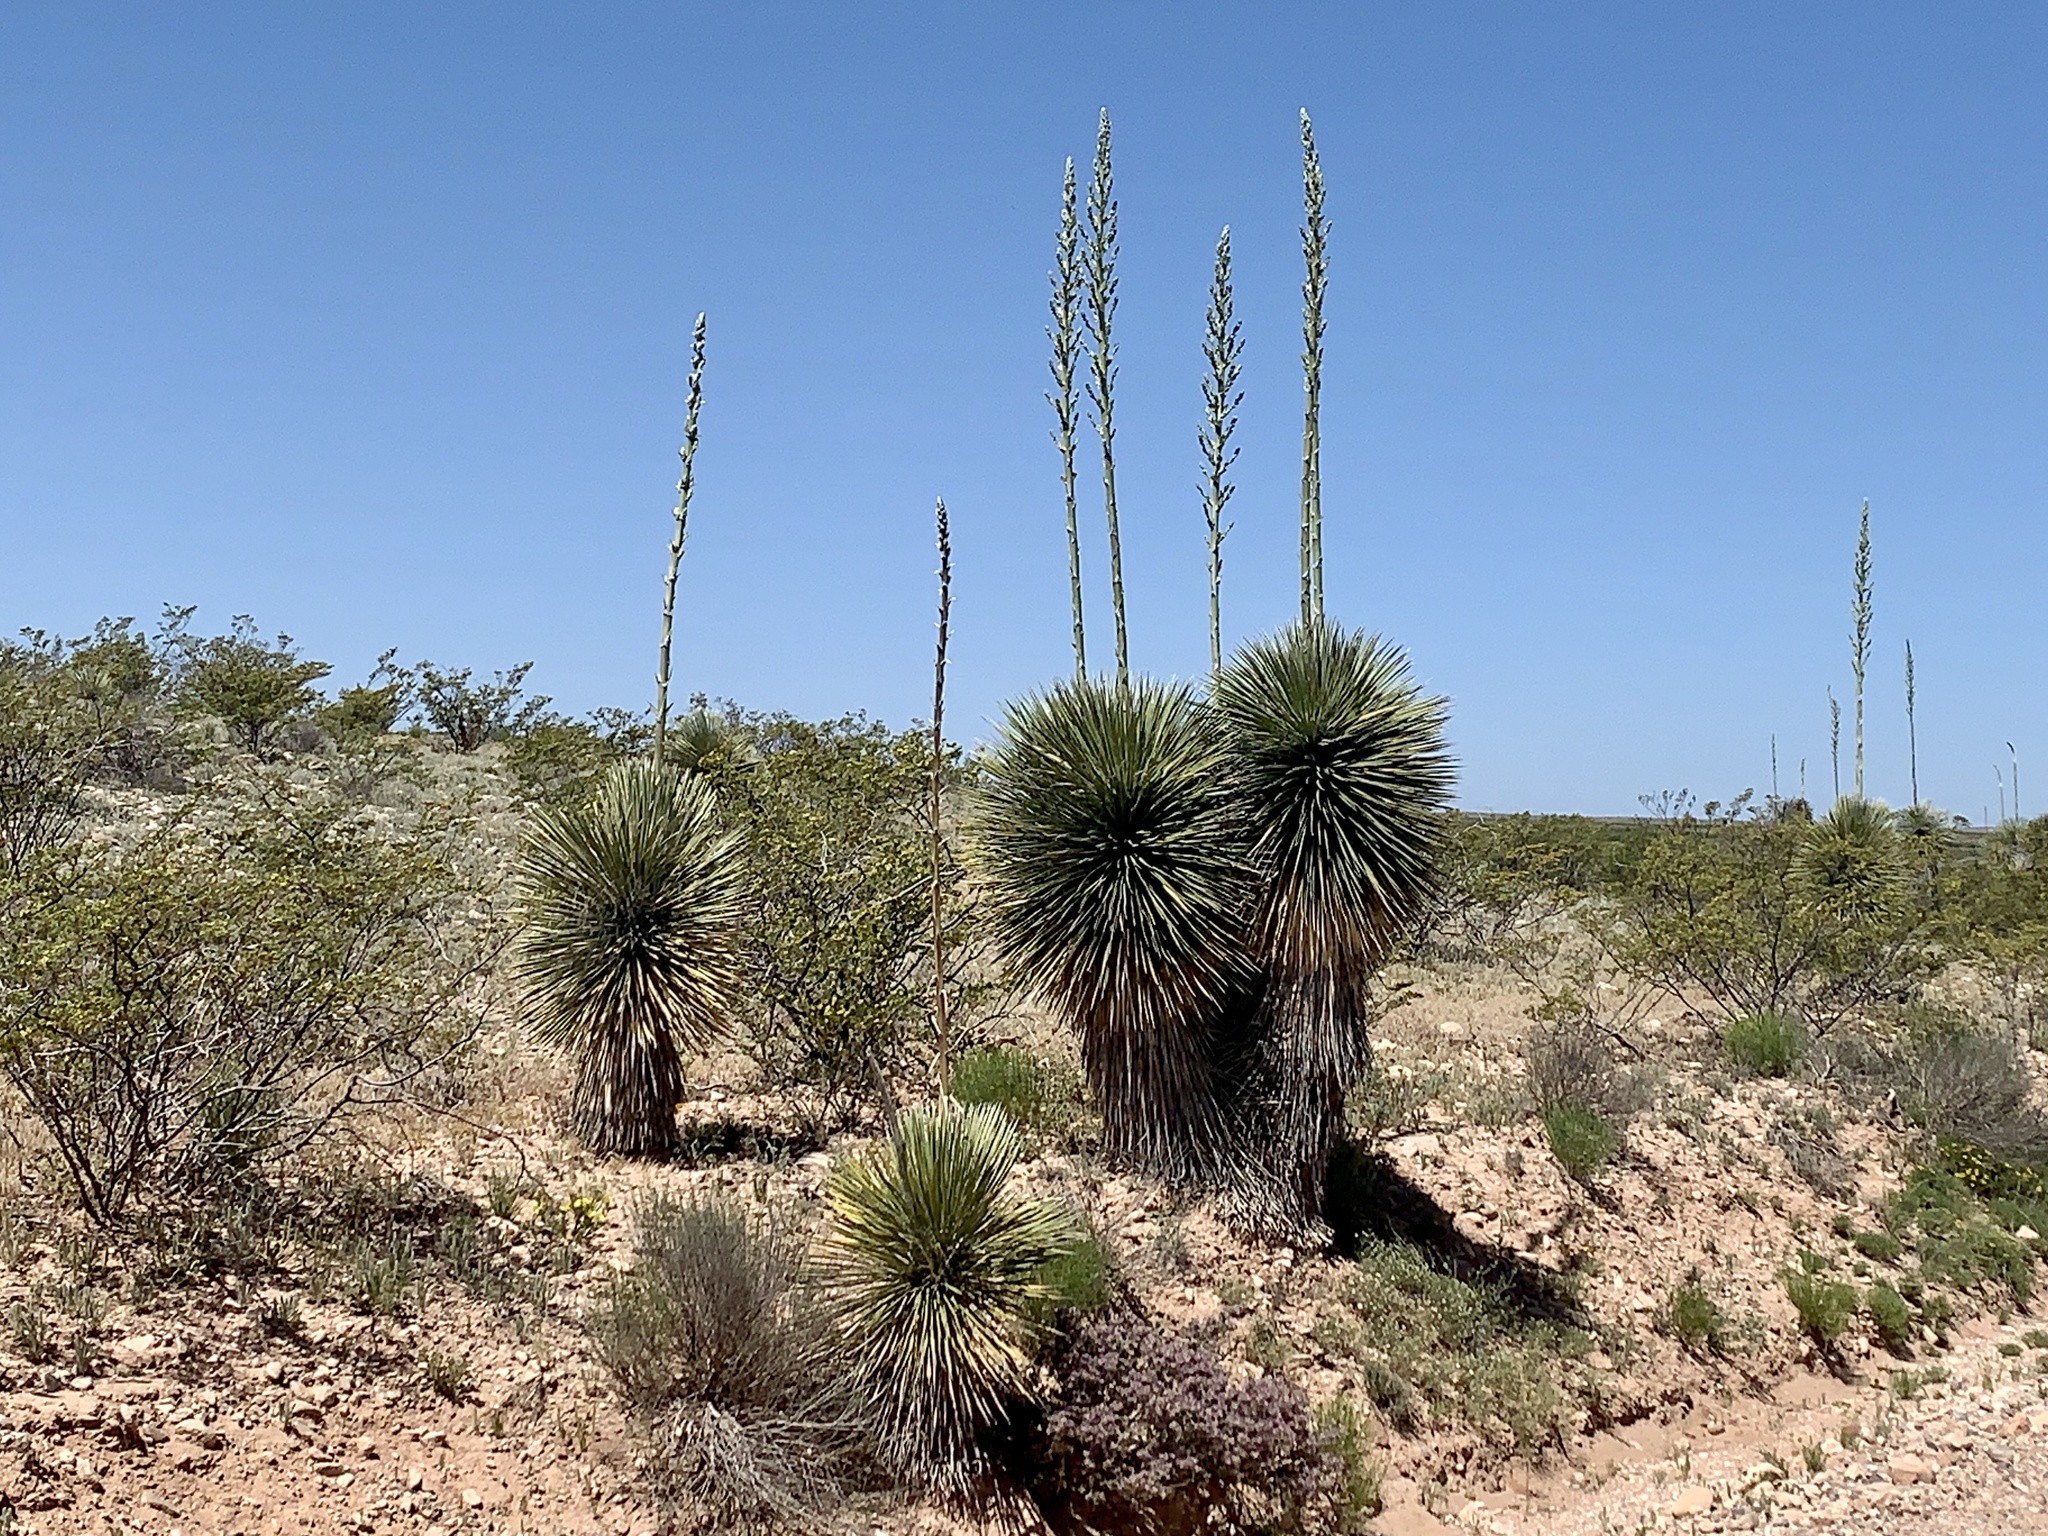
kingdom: Plantae
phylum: Tracheophyta
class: Liliopsida
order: Asparagales
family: Asparagaceae
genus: Yucca
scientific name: Yucca elata
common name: Palmella
